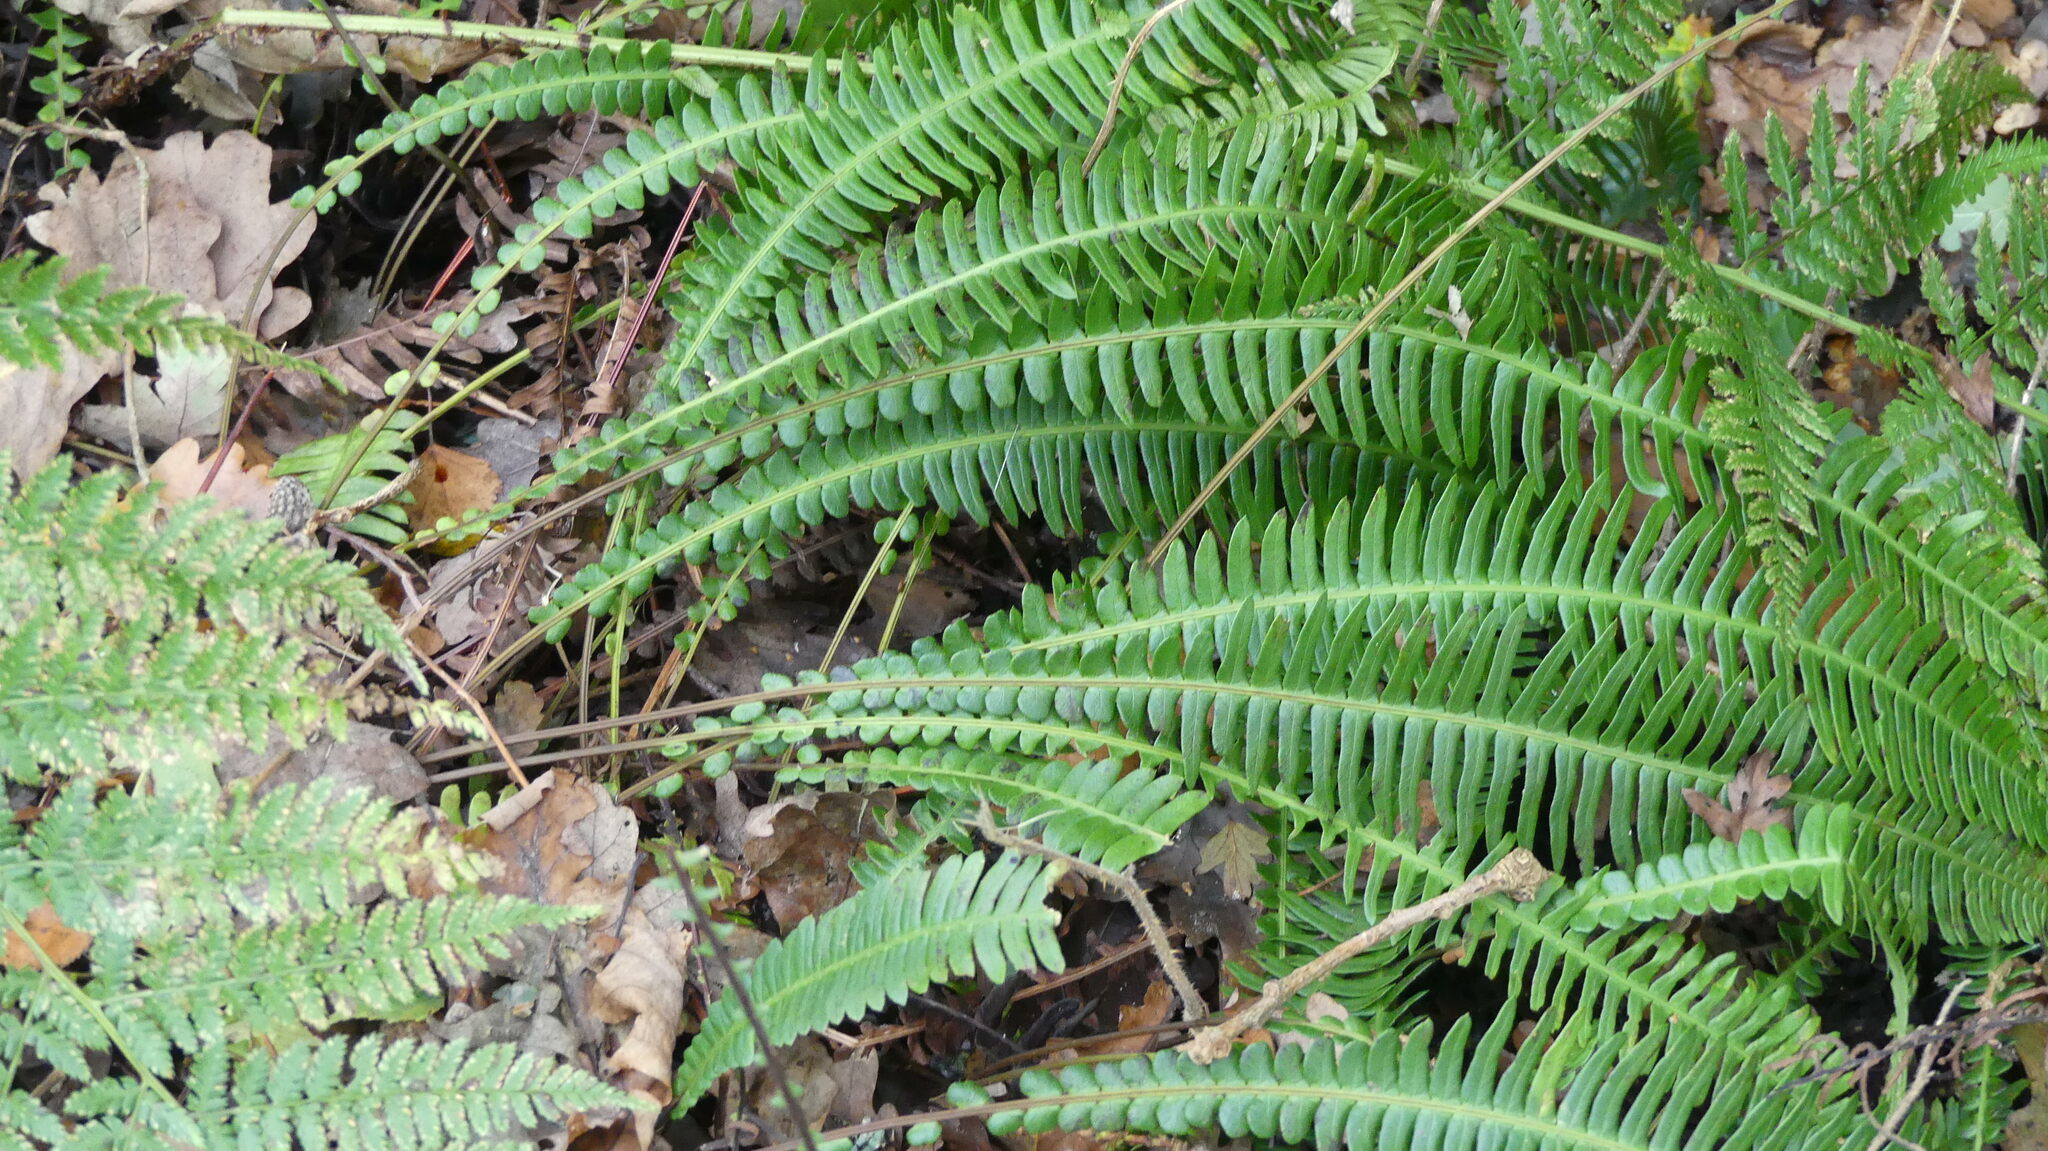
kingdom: Plantae
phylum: Tracheophyta
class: Polypodiopsida
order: Polypodiales
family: Blechnaceae
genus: Struthiopteris
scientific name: Struthiopteris spicant
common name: Deer fern
